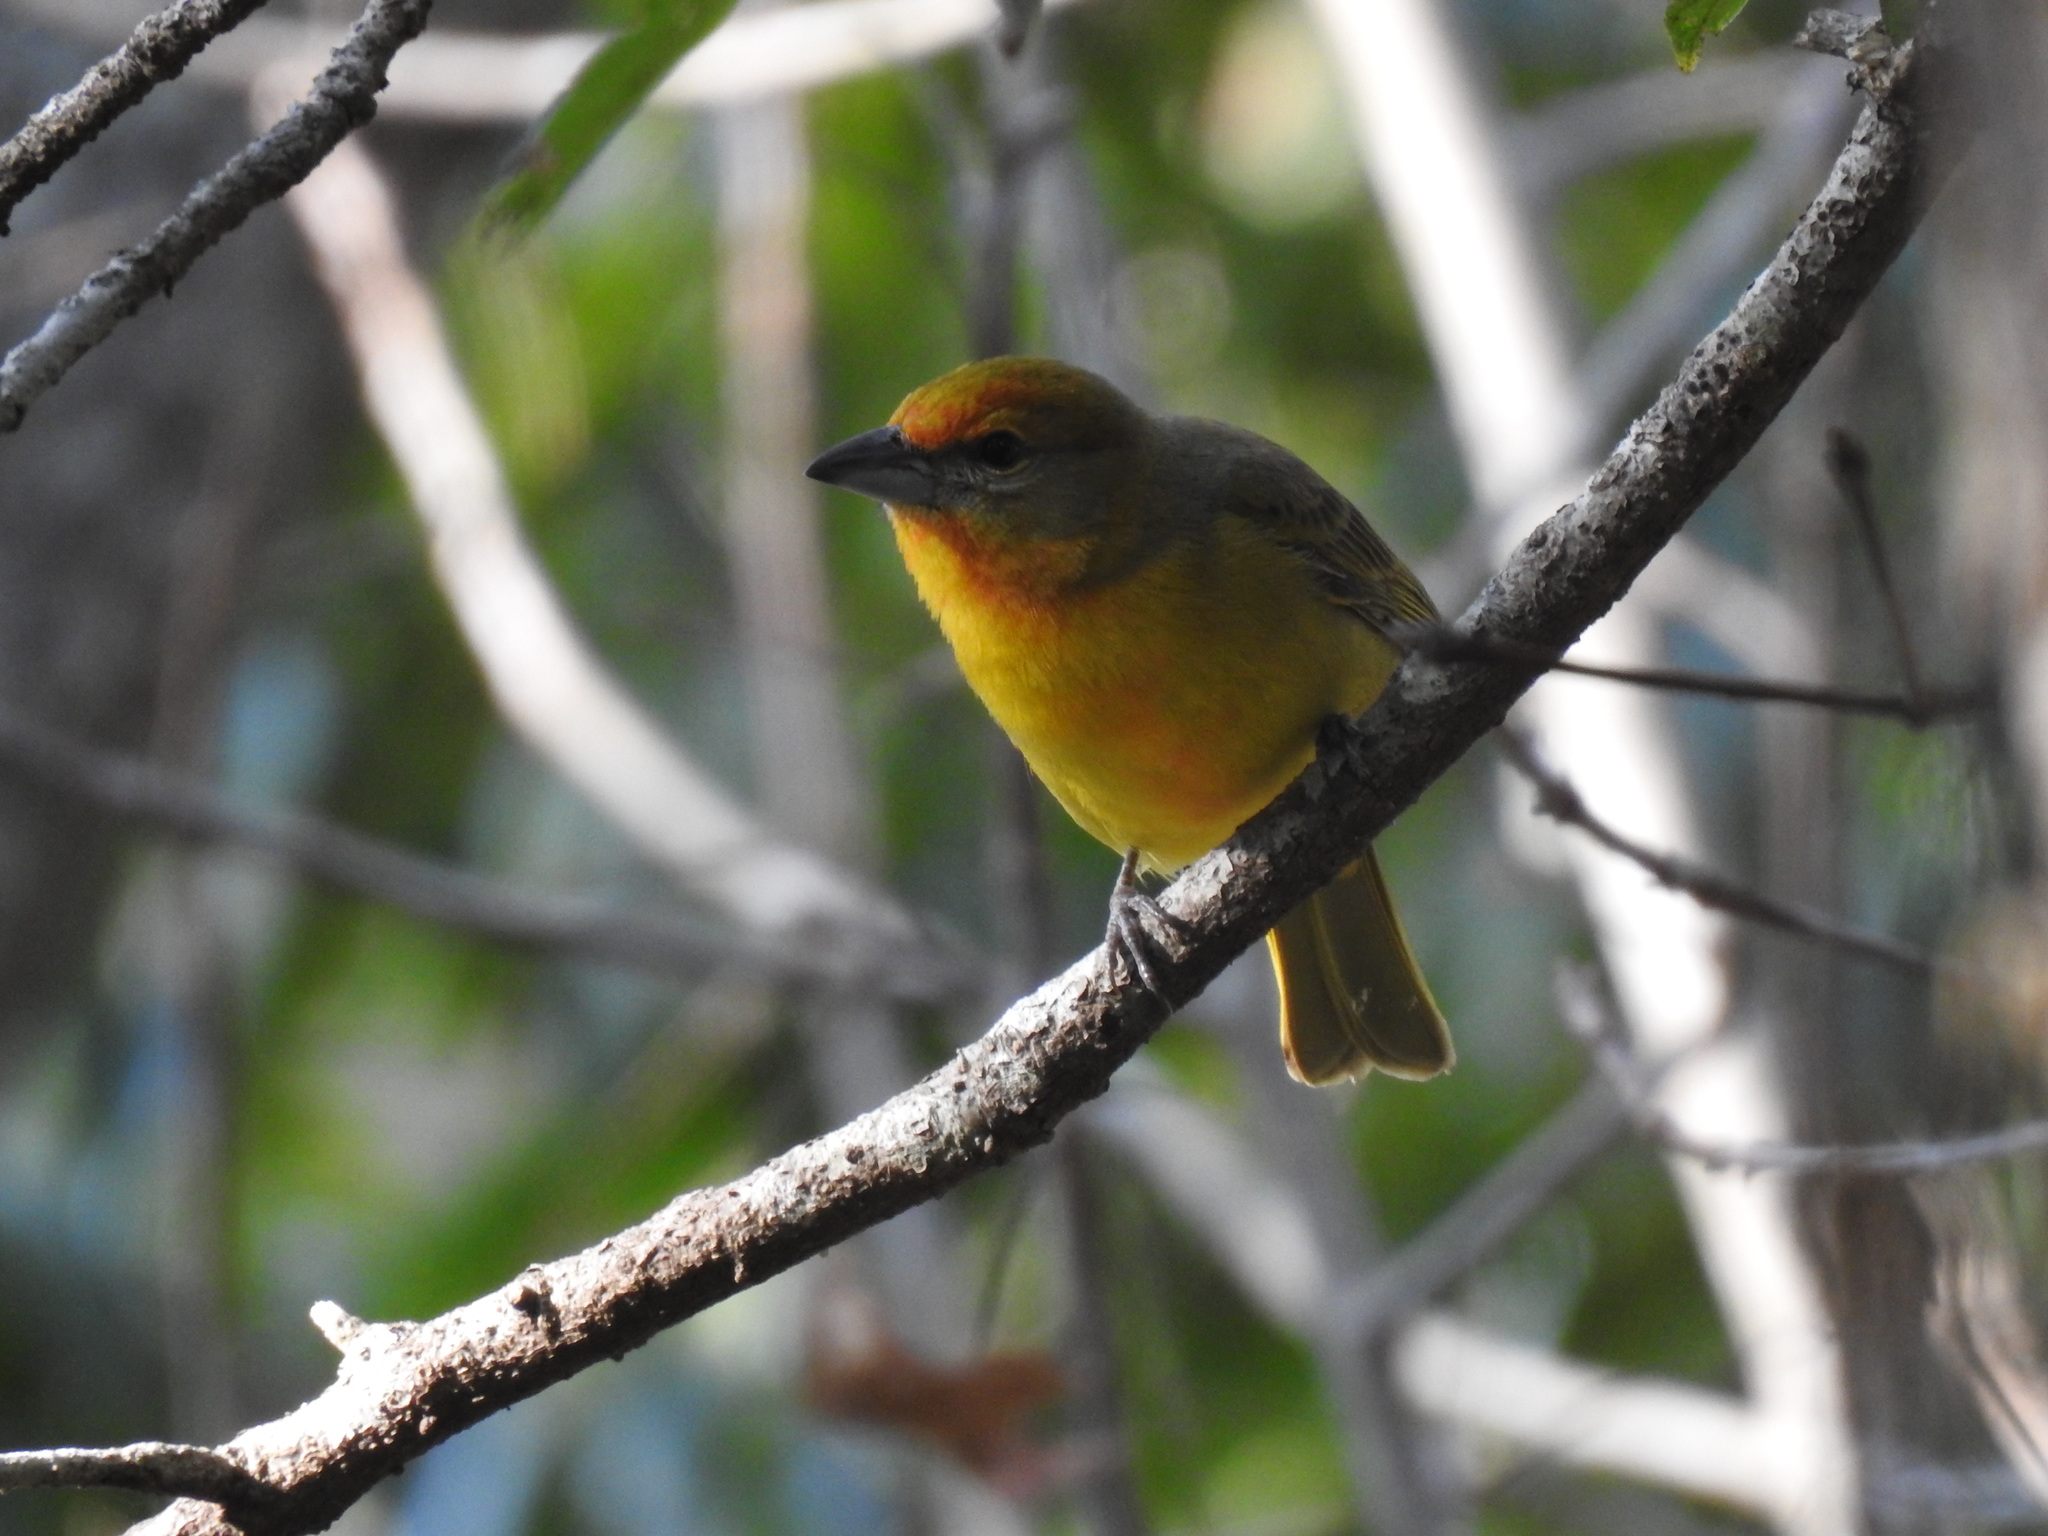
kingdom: Animalia
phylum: Chordata
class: Aves
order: Passeriformes
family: Cardinalidae
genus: Piranga
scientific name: Piranga flava
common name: Red tanager
